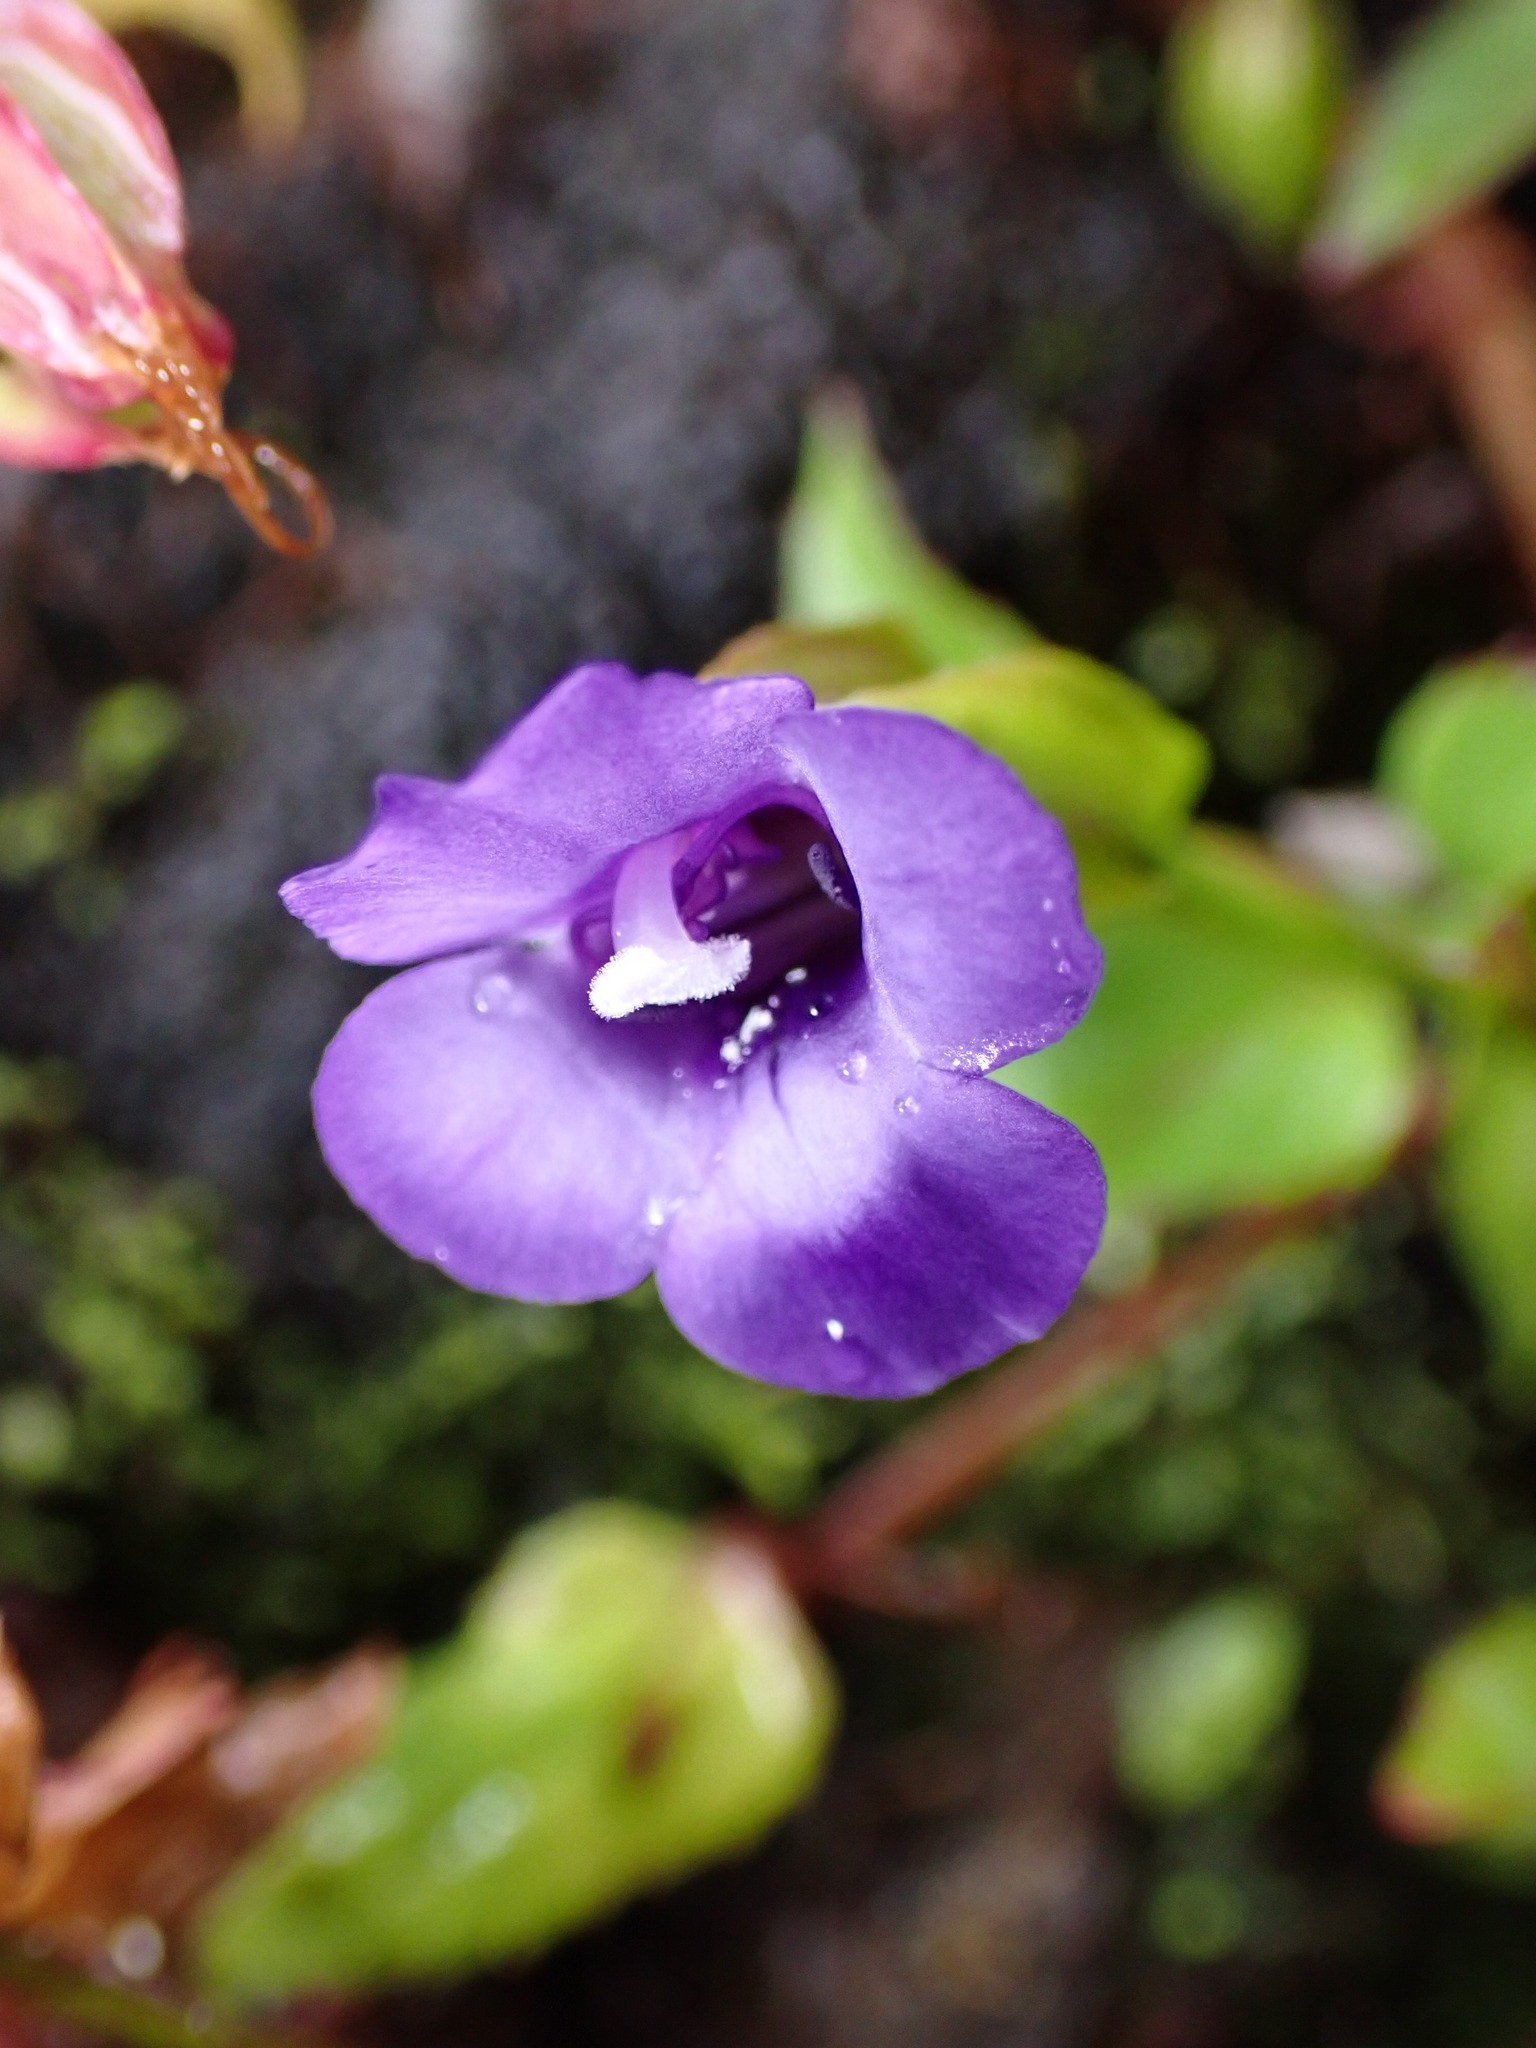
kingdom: Plantae
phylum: Tracheophyta
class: Magnoliopsida
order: Lamiales
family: Linderniaceae
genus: Torenia
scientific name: Torenia asiatica
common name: Wishbone flower
